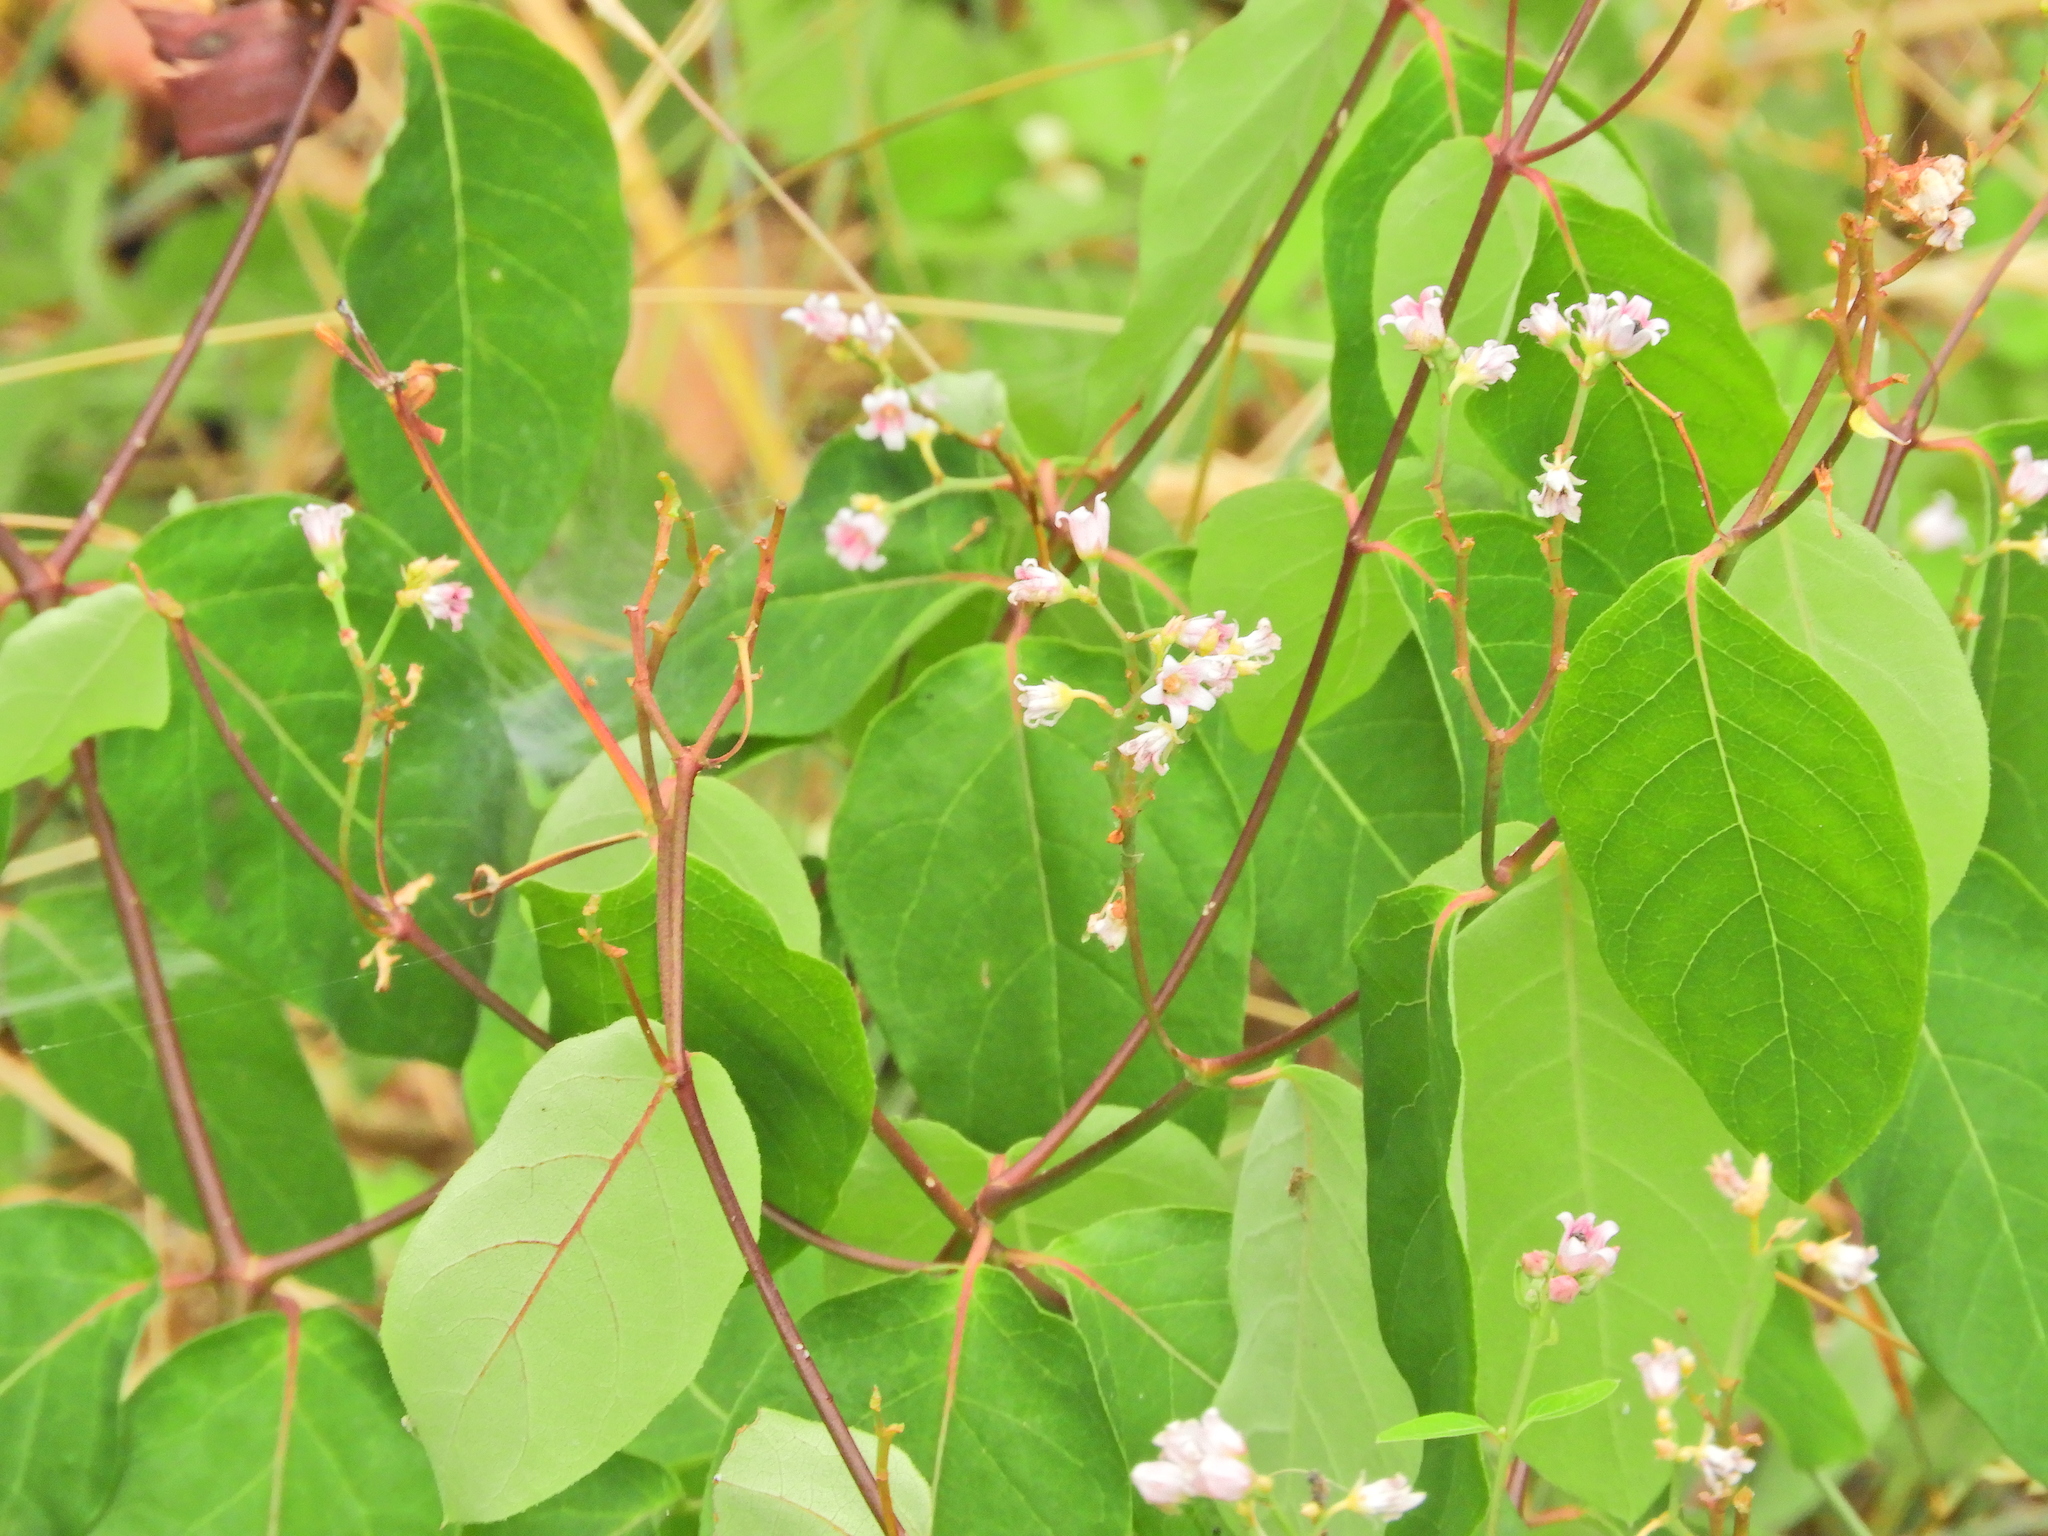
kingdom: Plantae
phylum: Tracheophyta
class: Magnoliopsida
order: Gentianales
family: Apocynaceae
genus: Apocynum
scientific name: Apocynum androsaemifolium
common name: Spreading dogbane
